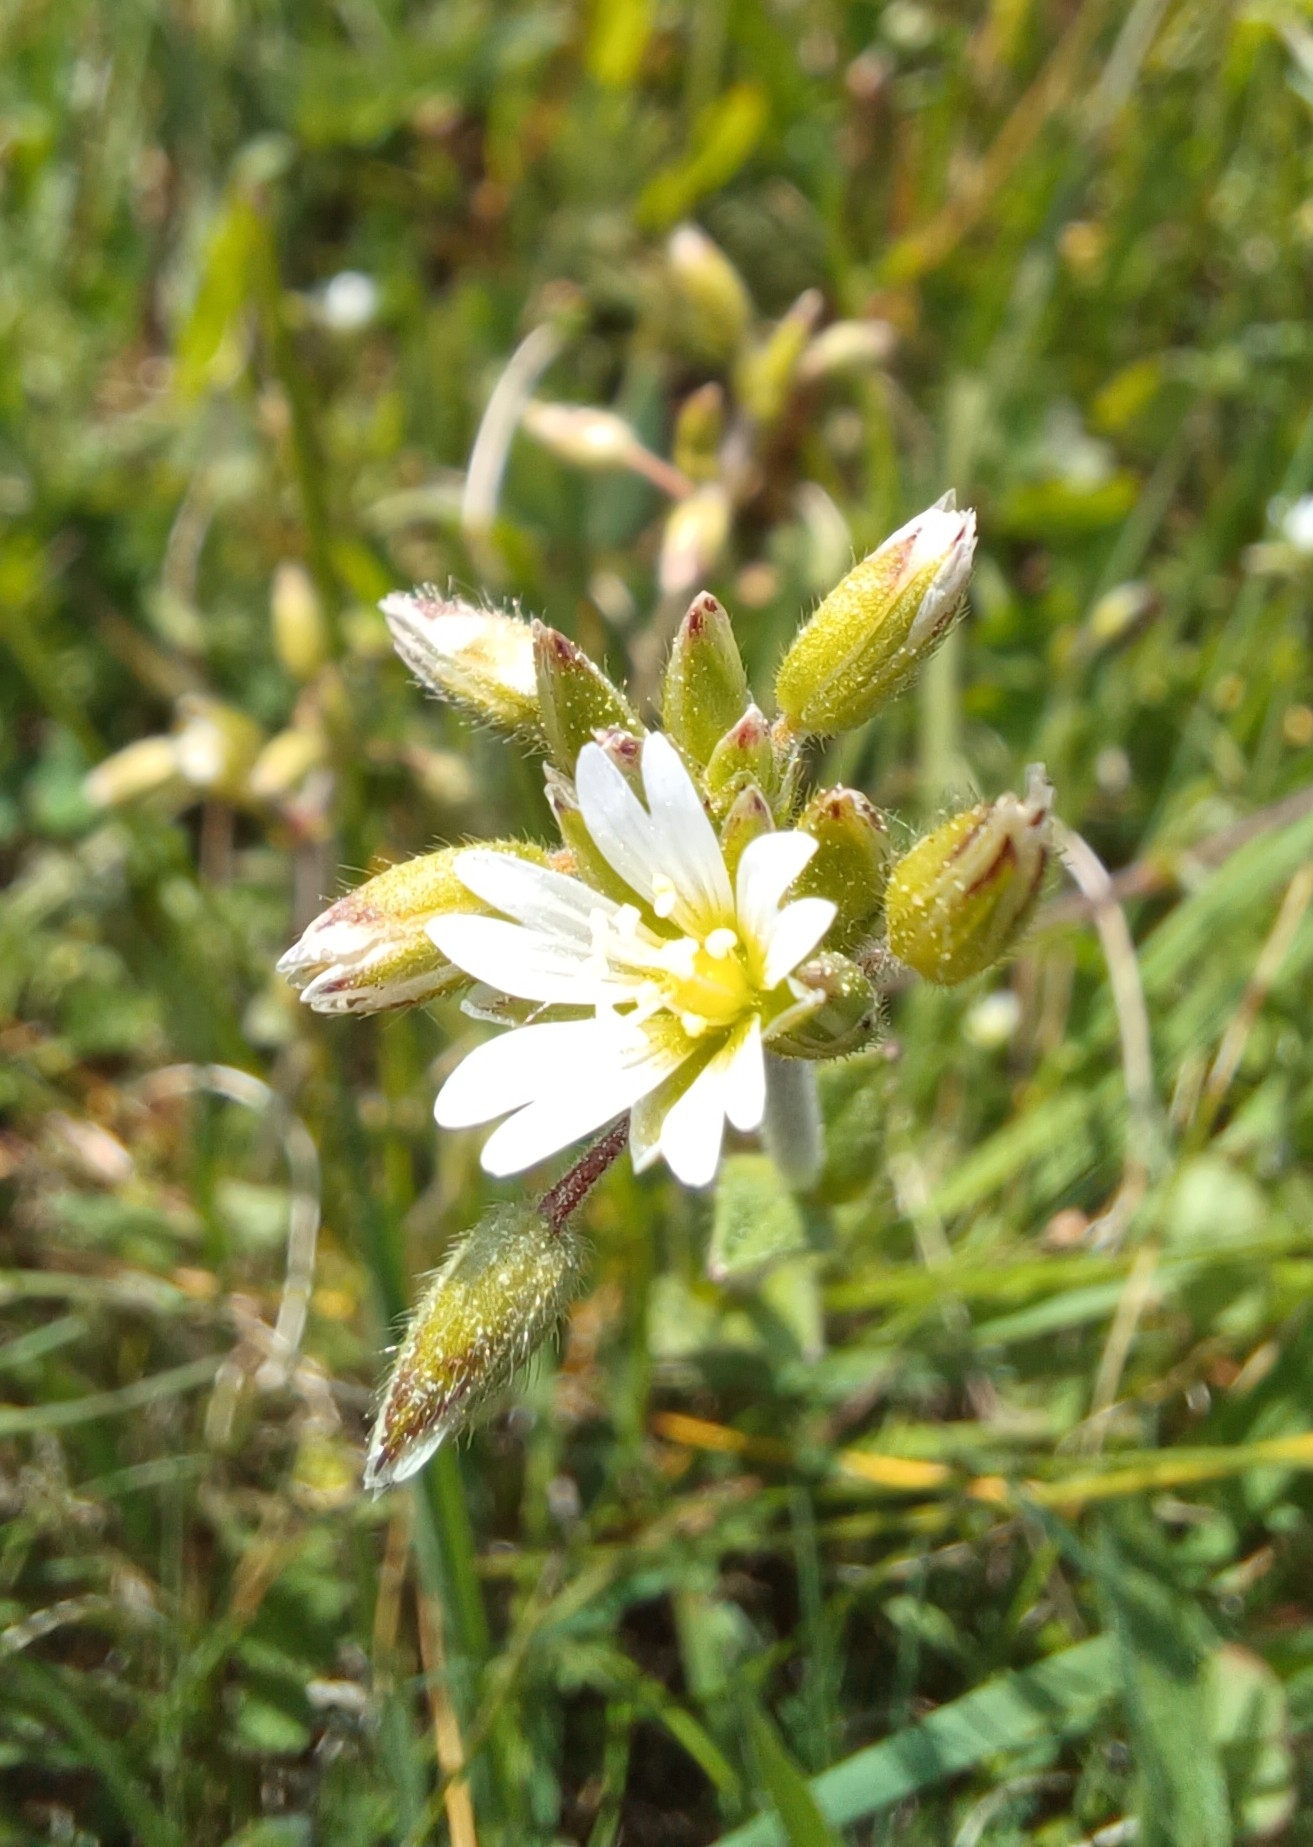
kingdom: Plantae
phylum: Tracheophyta
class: Magnoliopsida
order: Caryophyllales
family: Caryophyllaceae
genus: Cerastium
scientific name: Cerastium holosteoides
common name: Big chickweed
